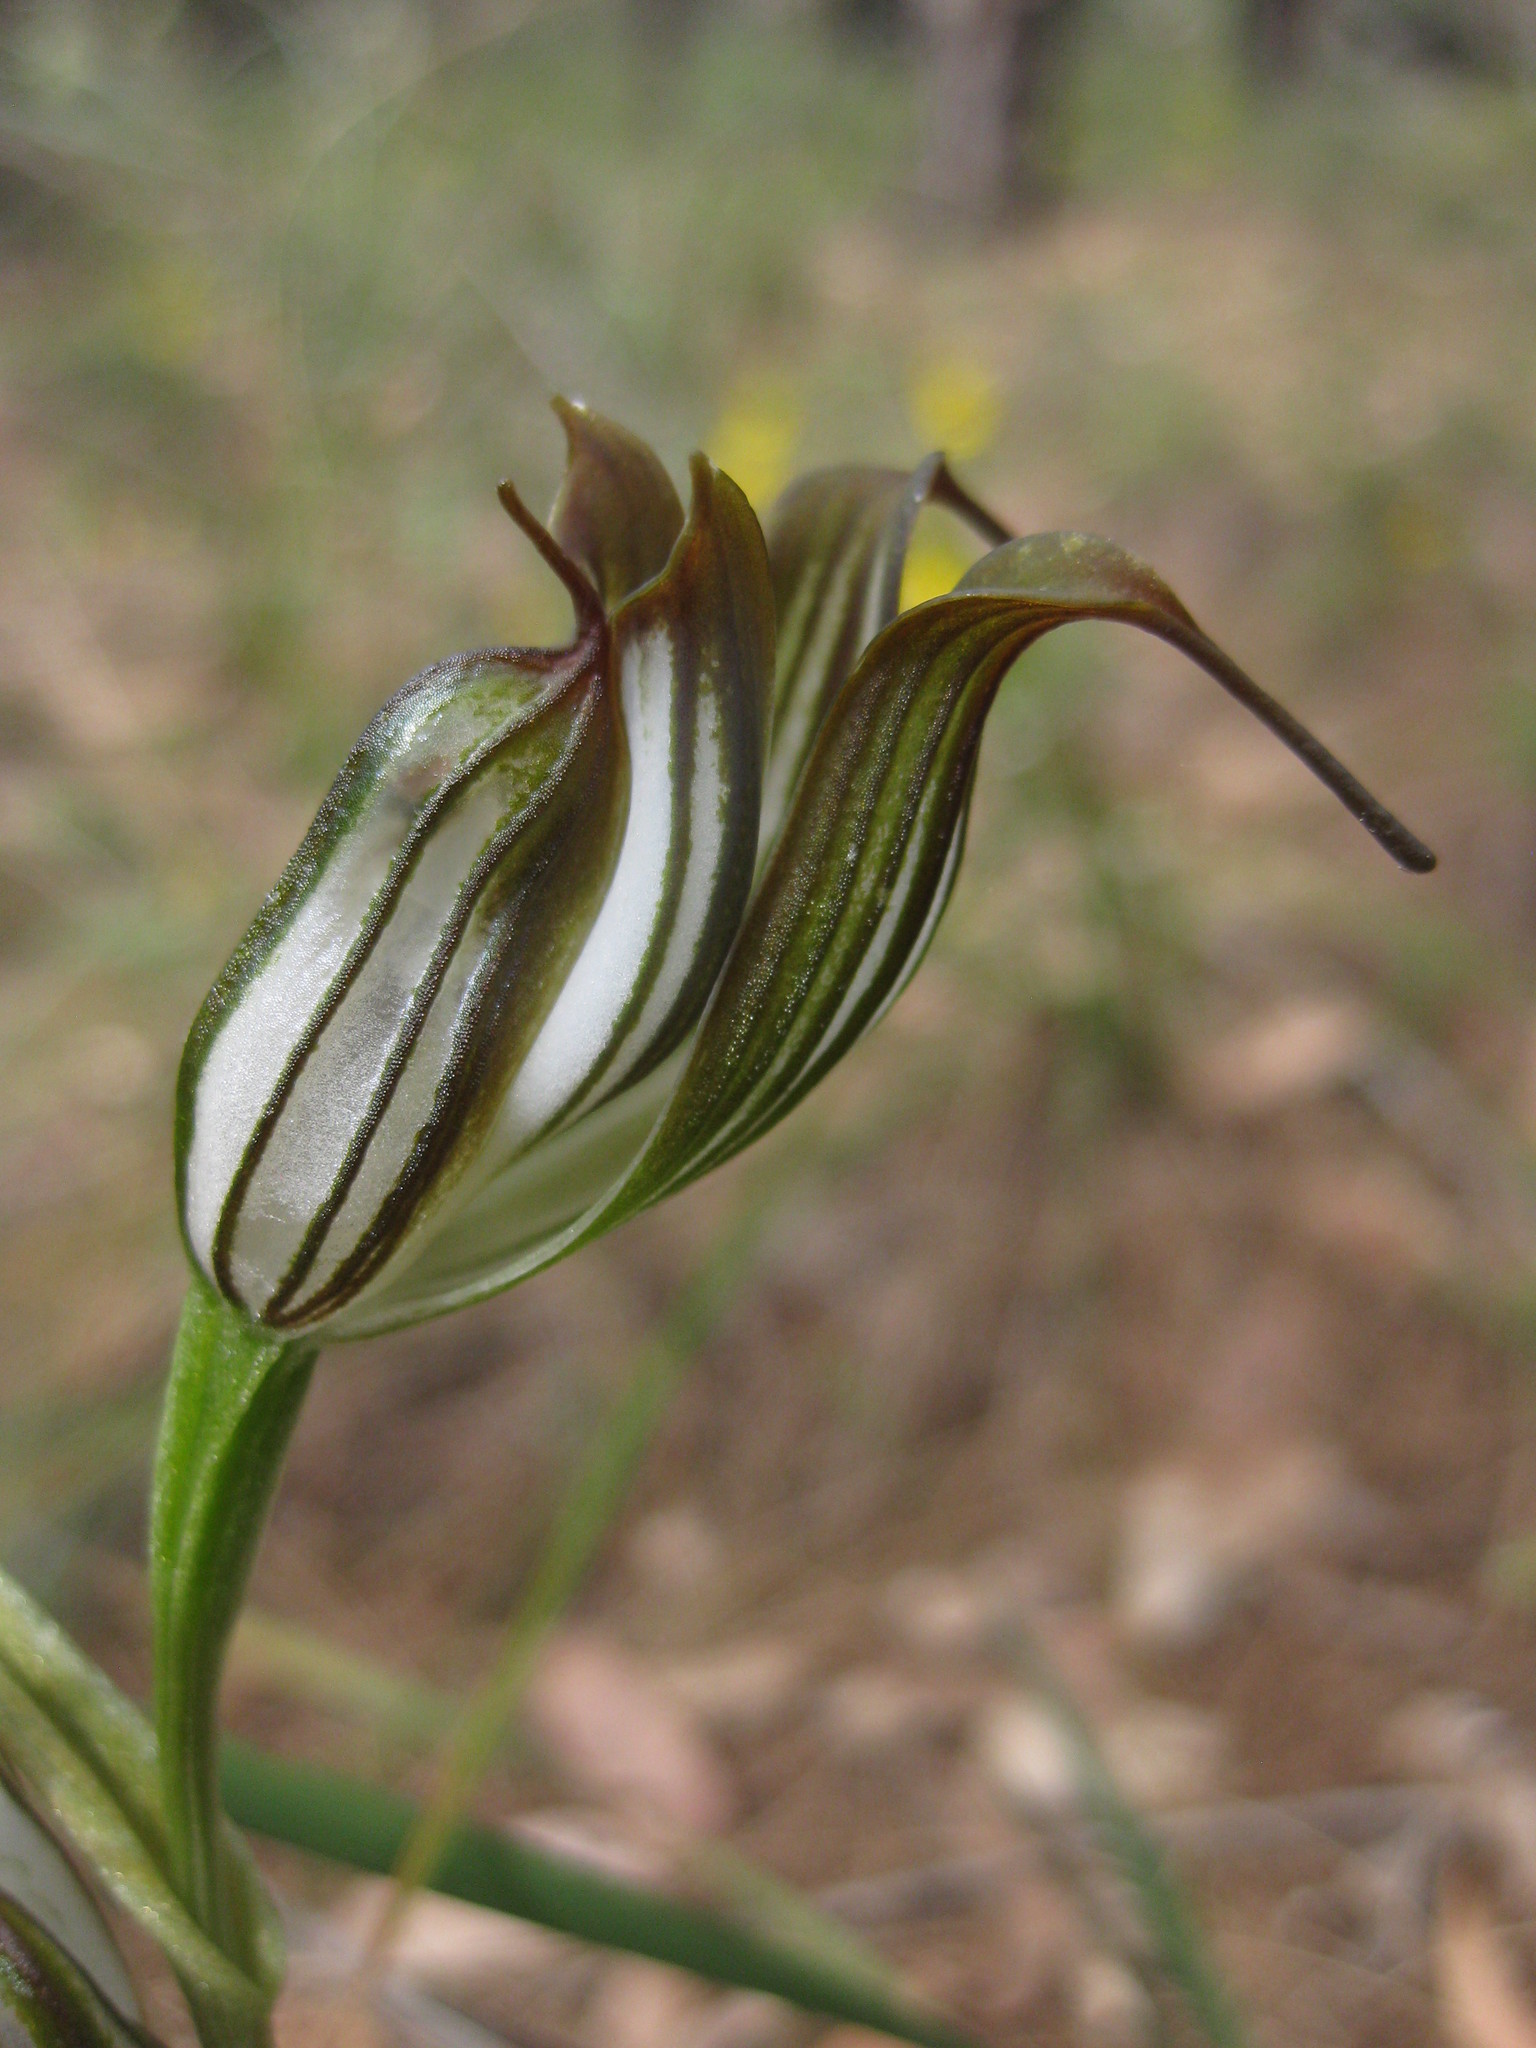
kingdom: Plantae
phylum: Tracheophyta
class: Liliopsida
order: Asparagales
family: Orchidaceae
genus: Pterostylis
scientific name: Pterostylis recurva
